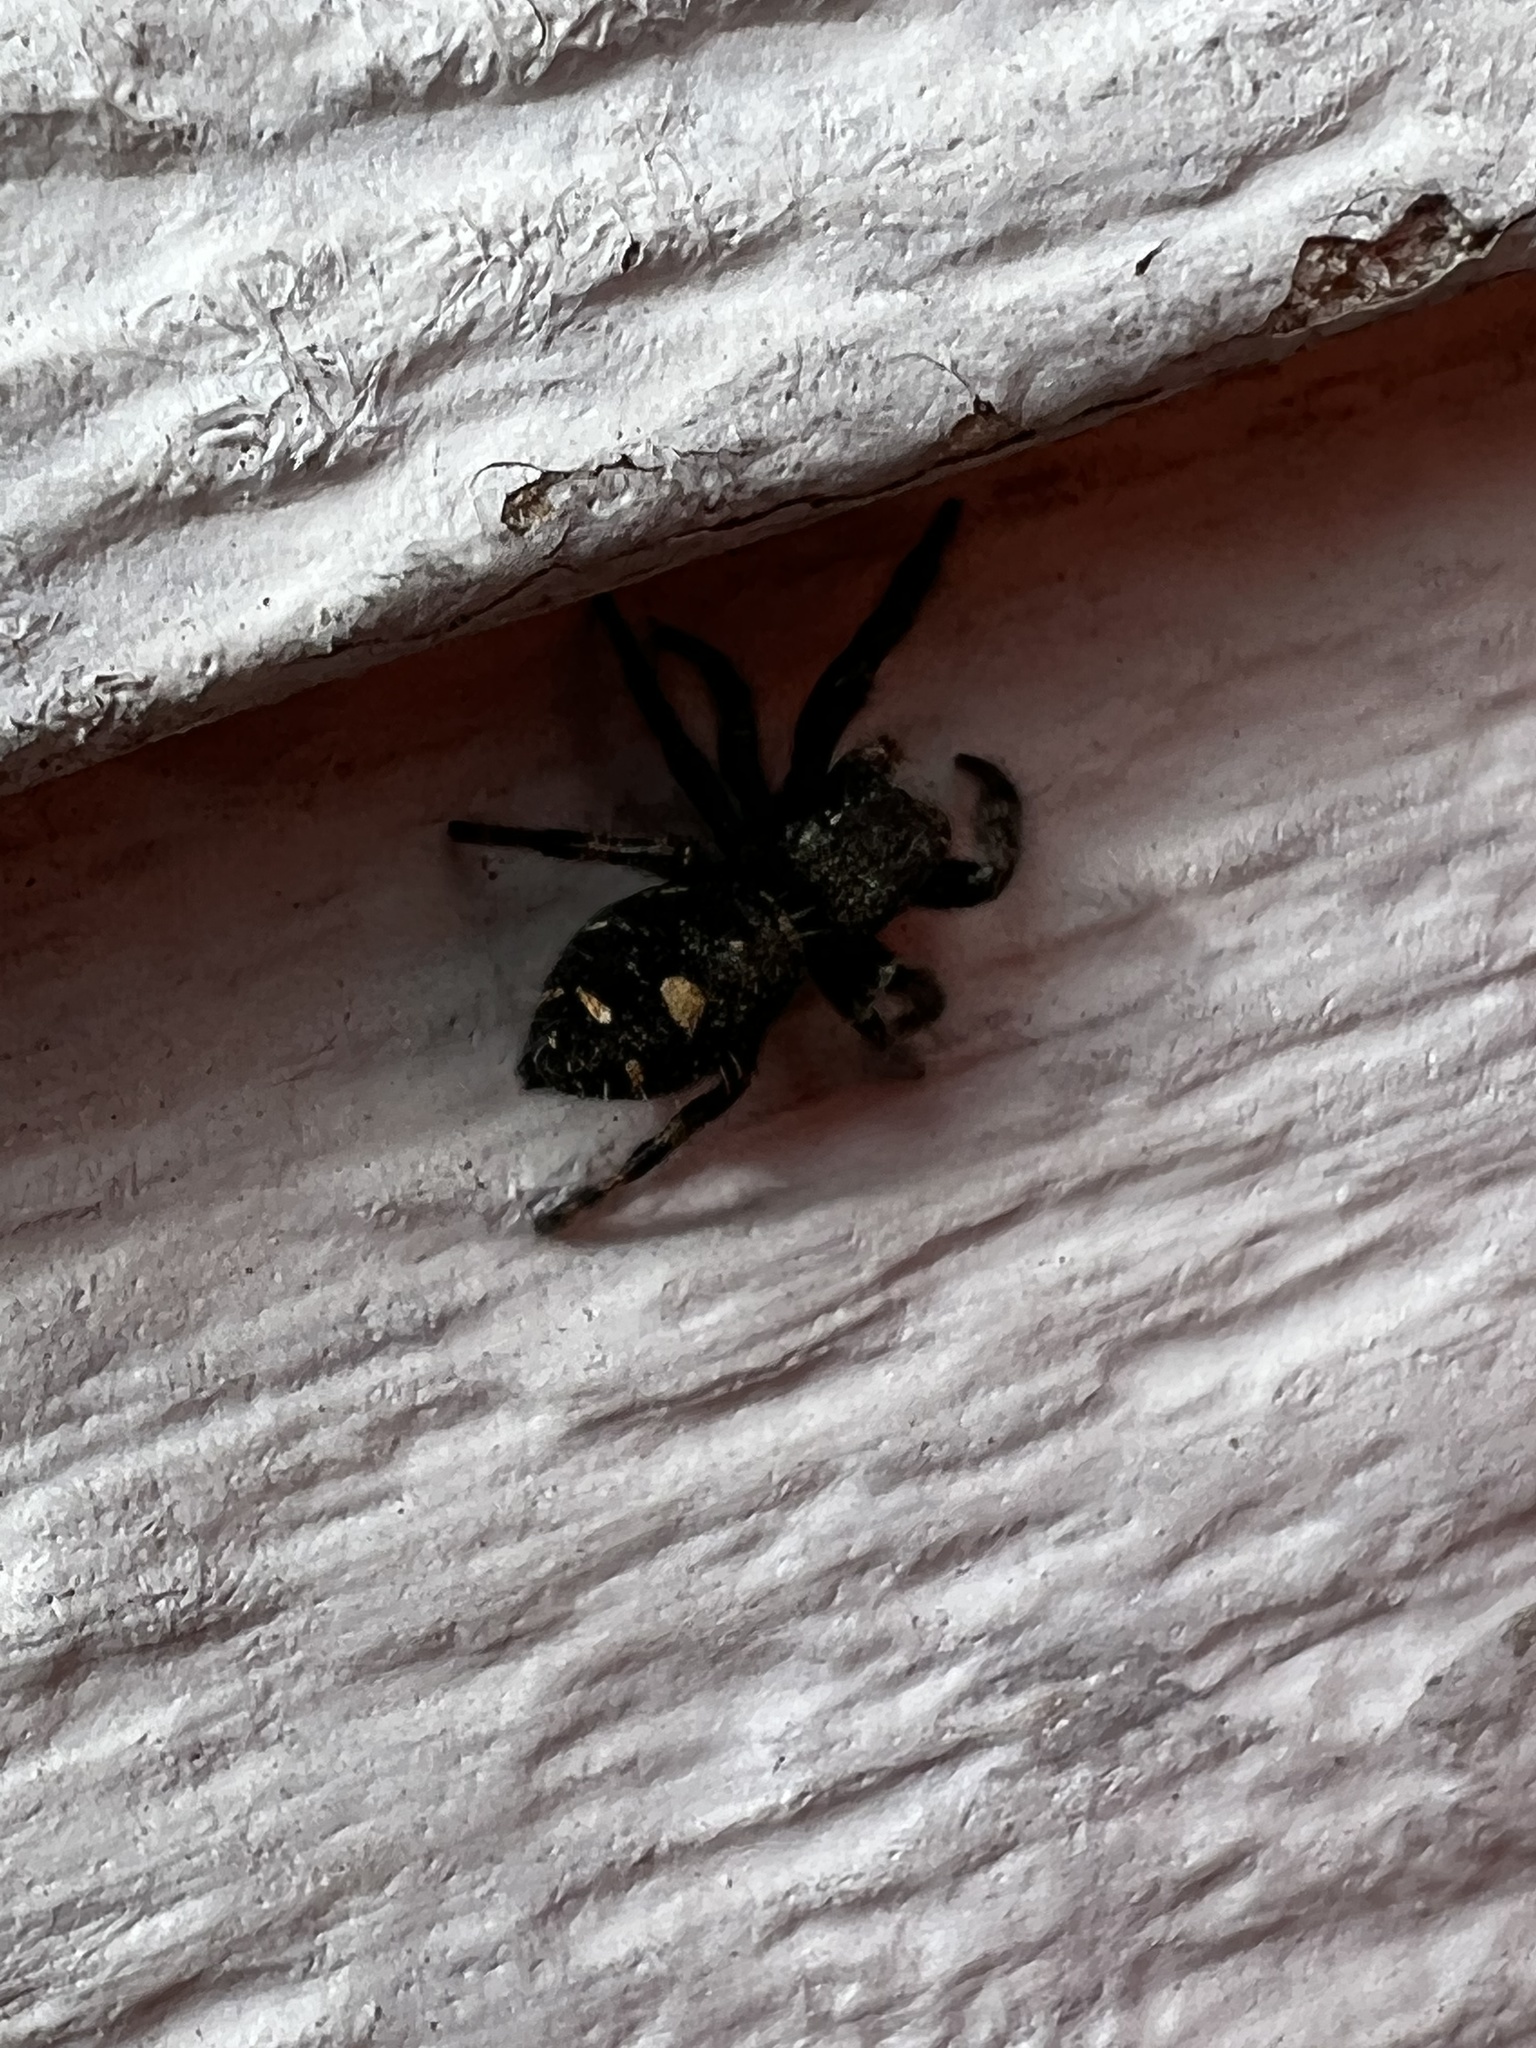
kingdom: Animalia
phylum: Arthropoda
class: Arachnida
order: Araneae
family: Salticidae
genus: Phidippus
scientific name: Phidippus audax
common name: Bold jumper
